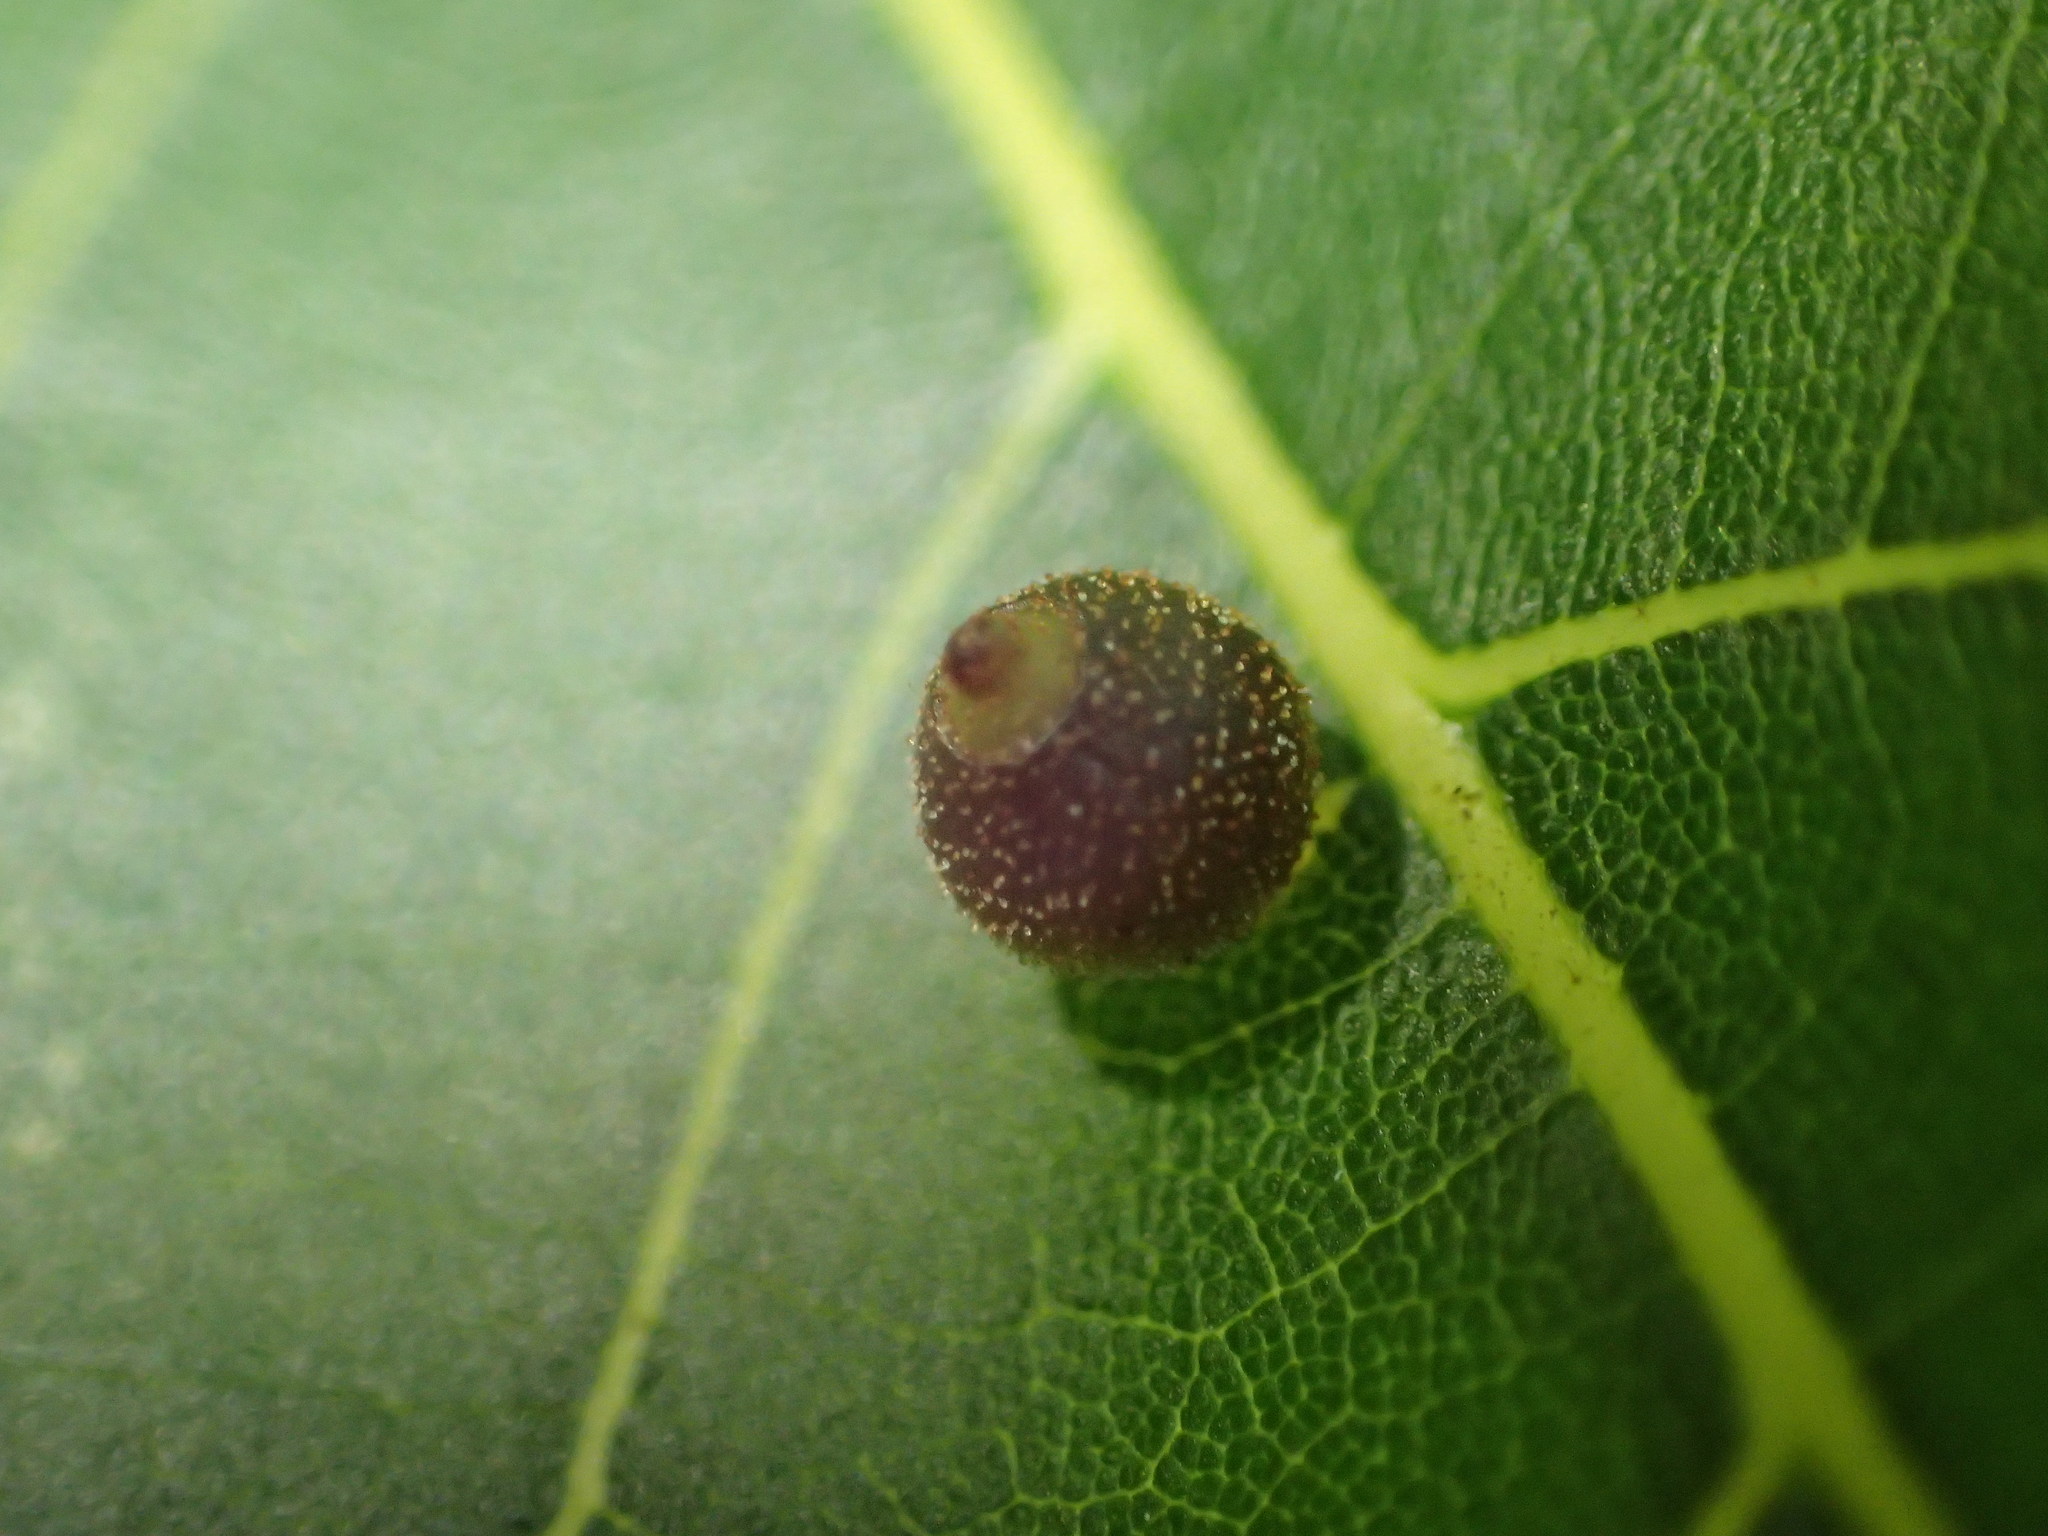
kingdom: Animalia
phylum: Arthropoda
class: Insecta
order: Diptera
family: Cecidomyiidae
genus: Caryomyia
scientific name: Caryomyia viscidolium
